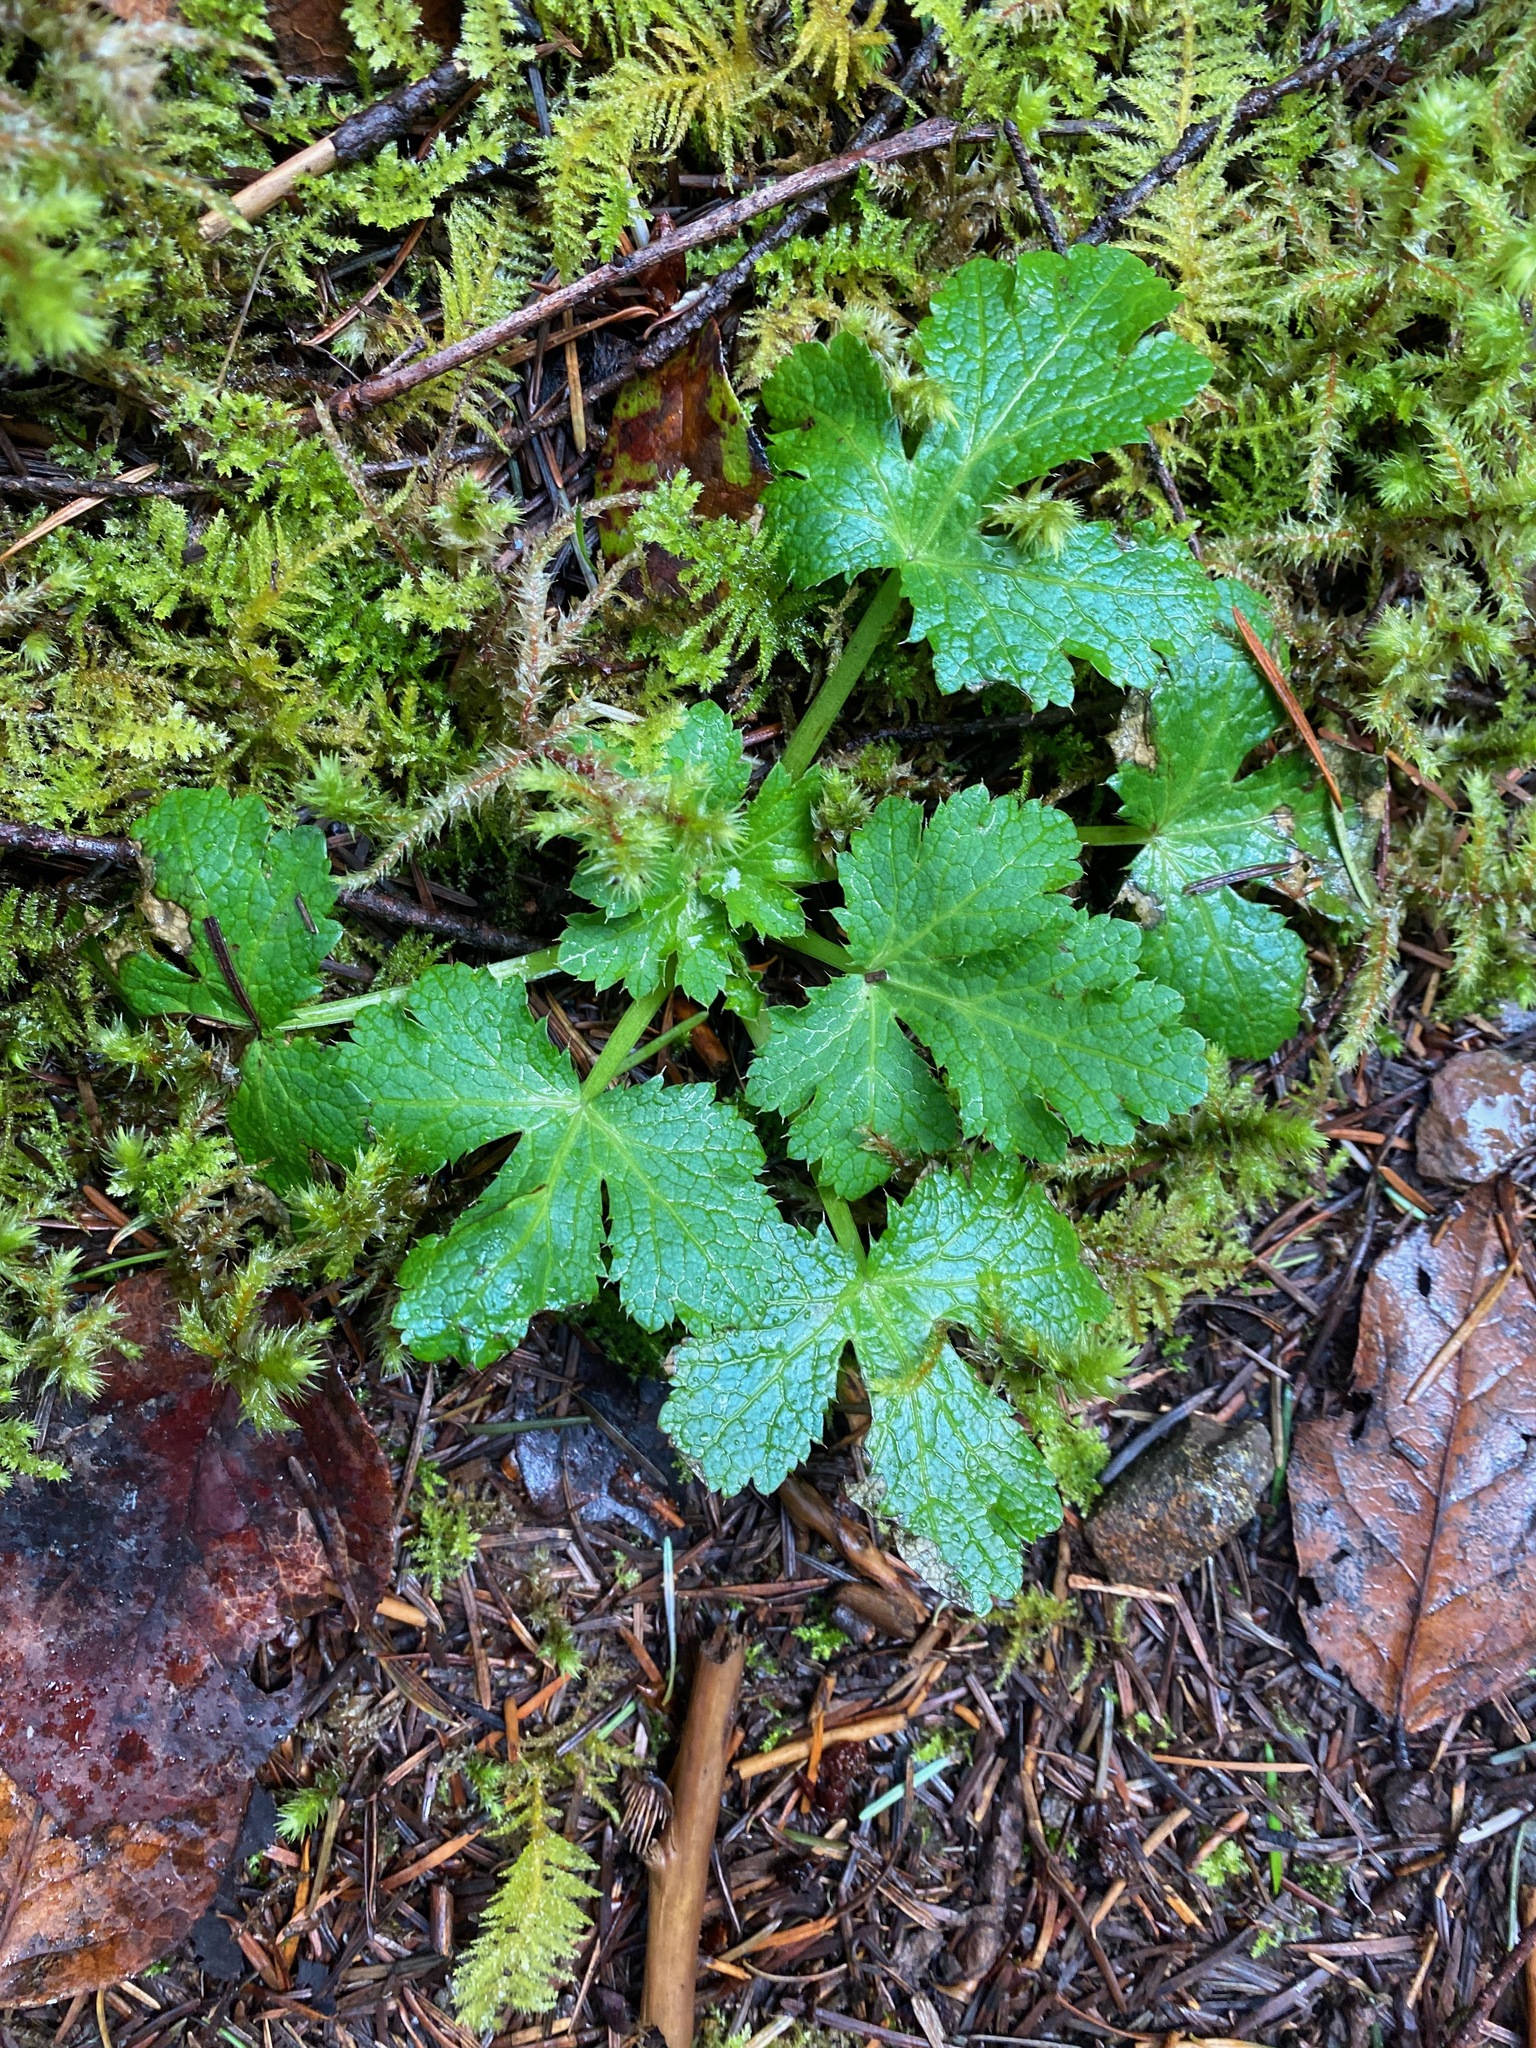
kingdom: Plantae
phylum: Tracheophyta
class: Magnoliopsida
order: Apiales
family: Apiaceae
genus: Sanicula
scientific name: Sanicula crassicaulis
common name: Western snakeroot
